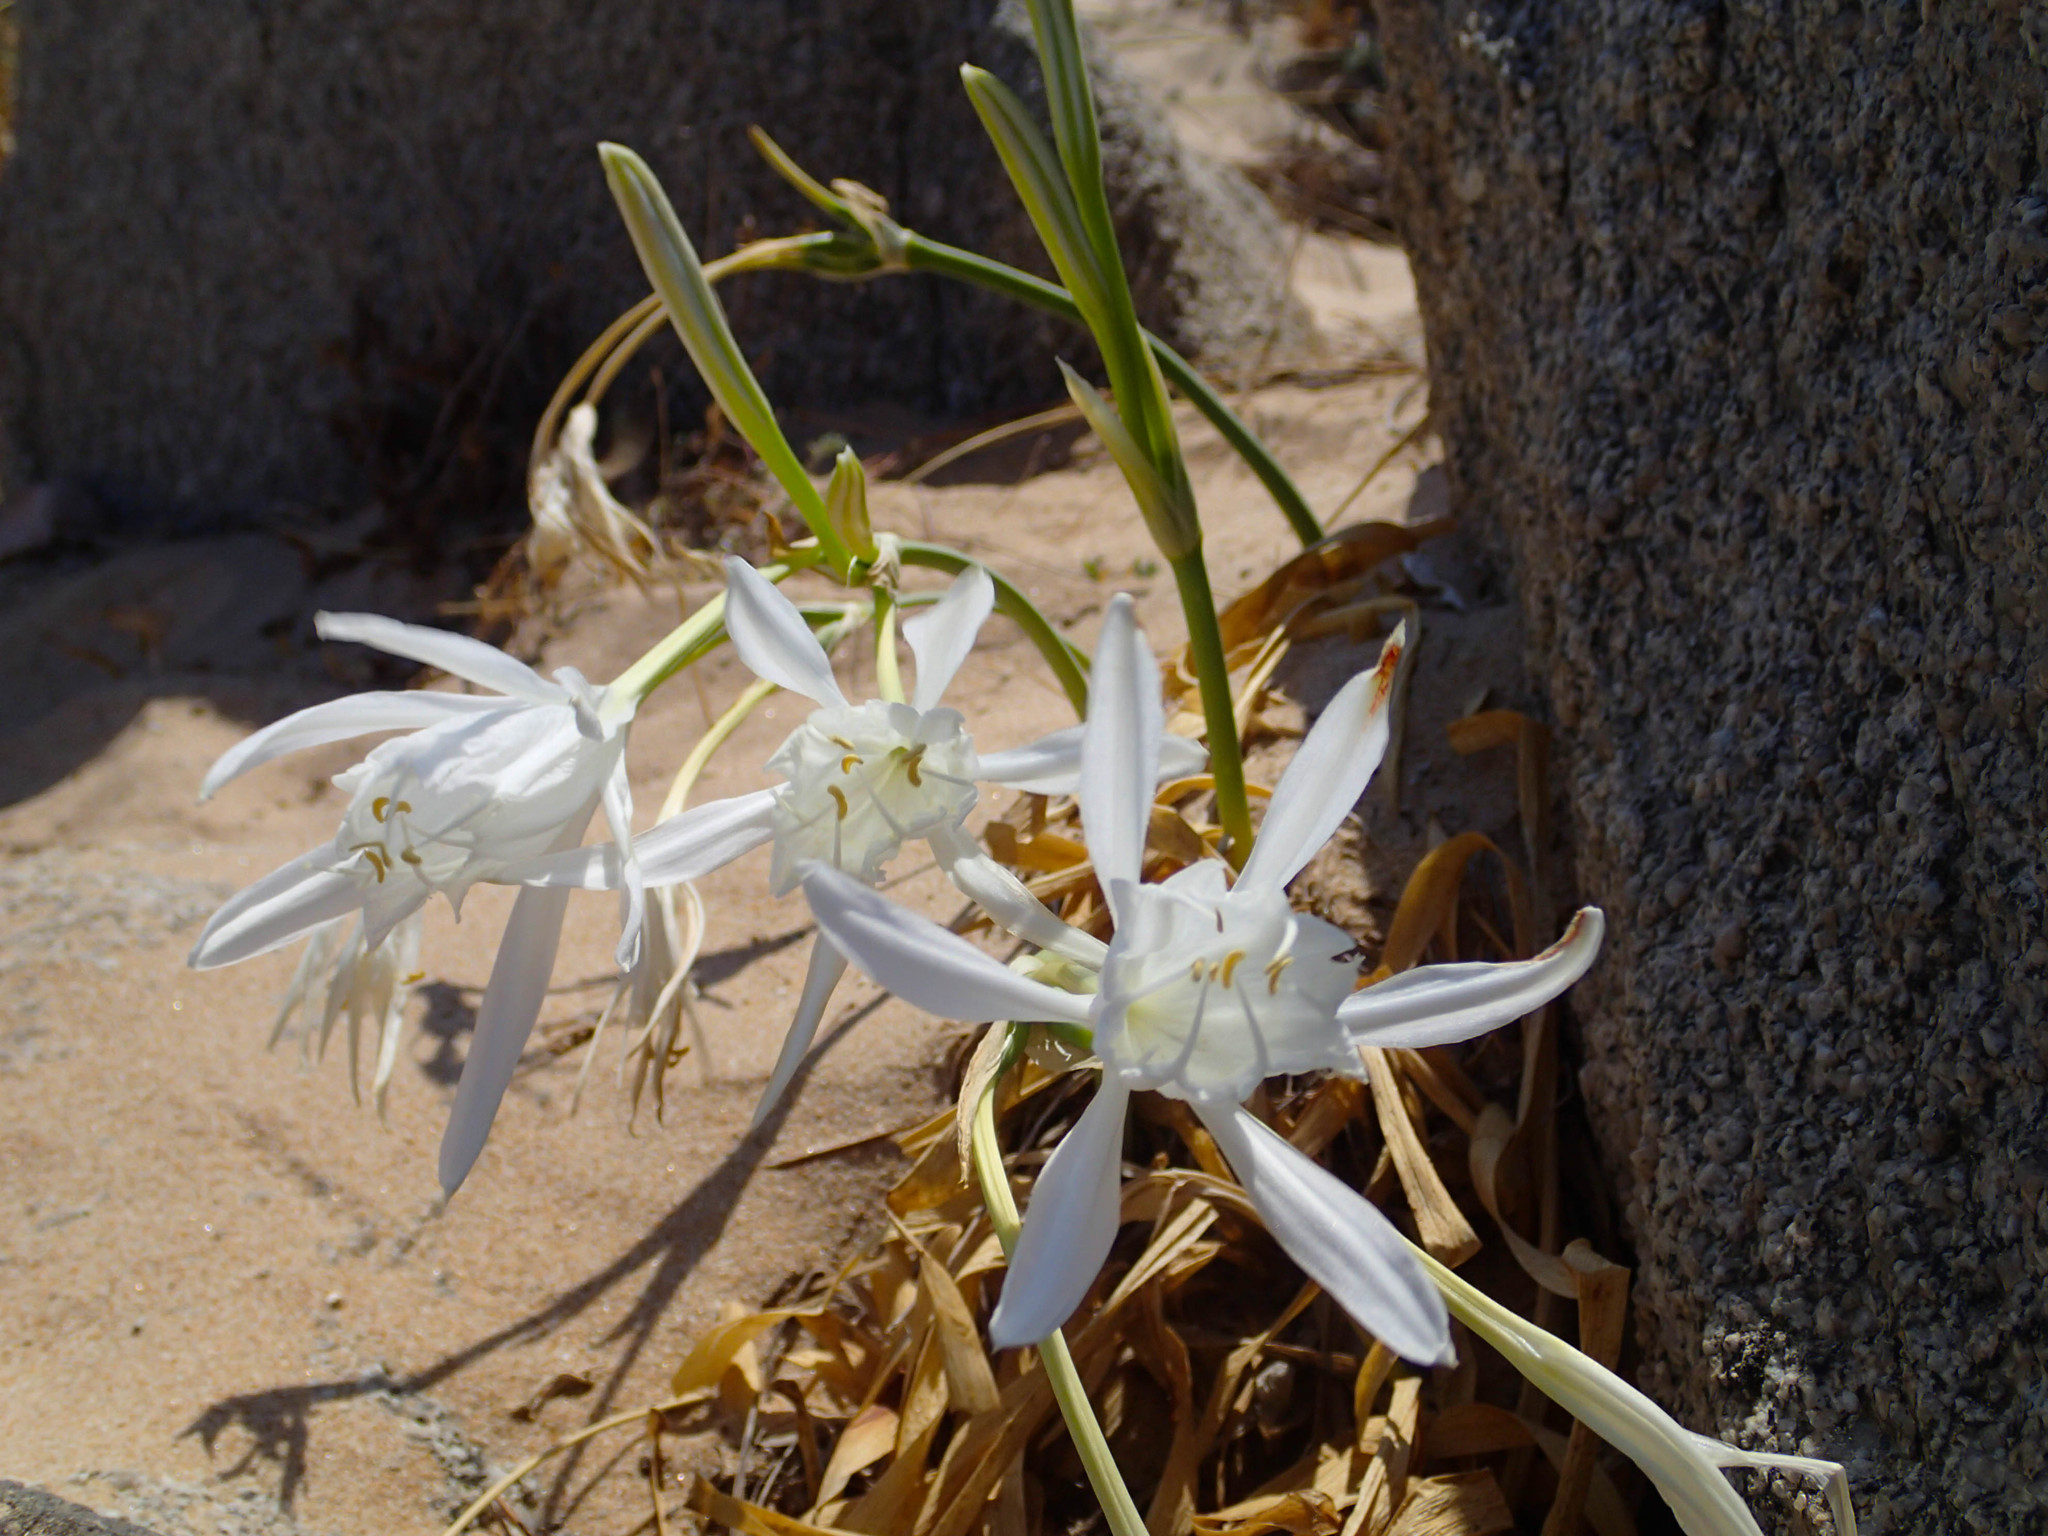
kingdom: Plantae
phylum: Tracheophyta
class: Liliopsida
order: Asparagales
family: Amaryllidaceae
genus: Pancratium
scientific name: Pancratium maritimum
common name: Sea-daffodil
